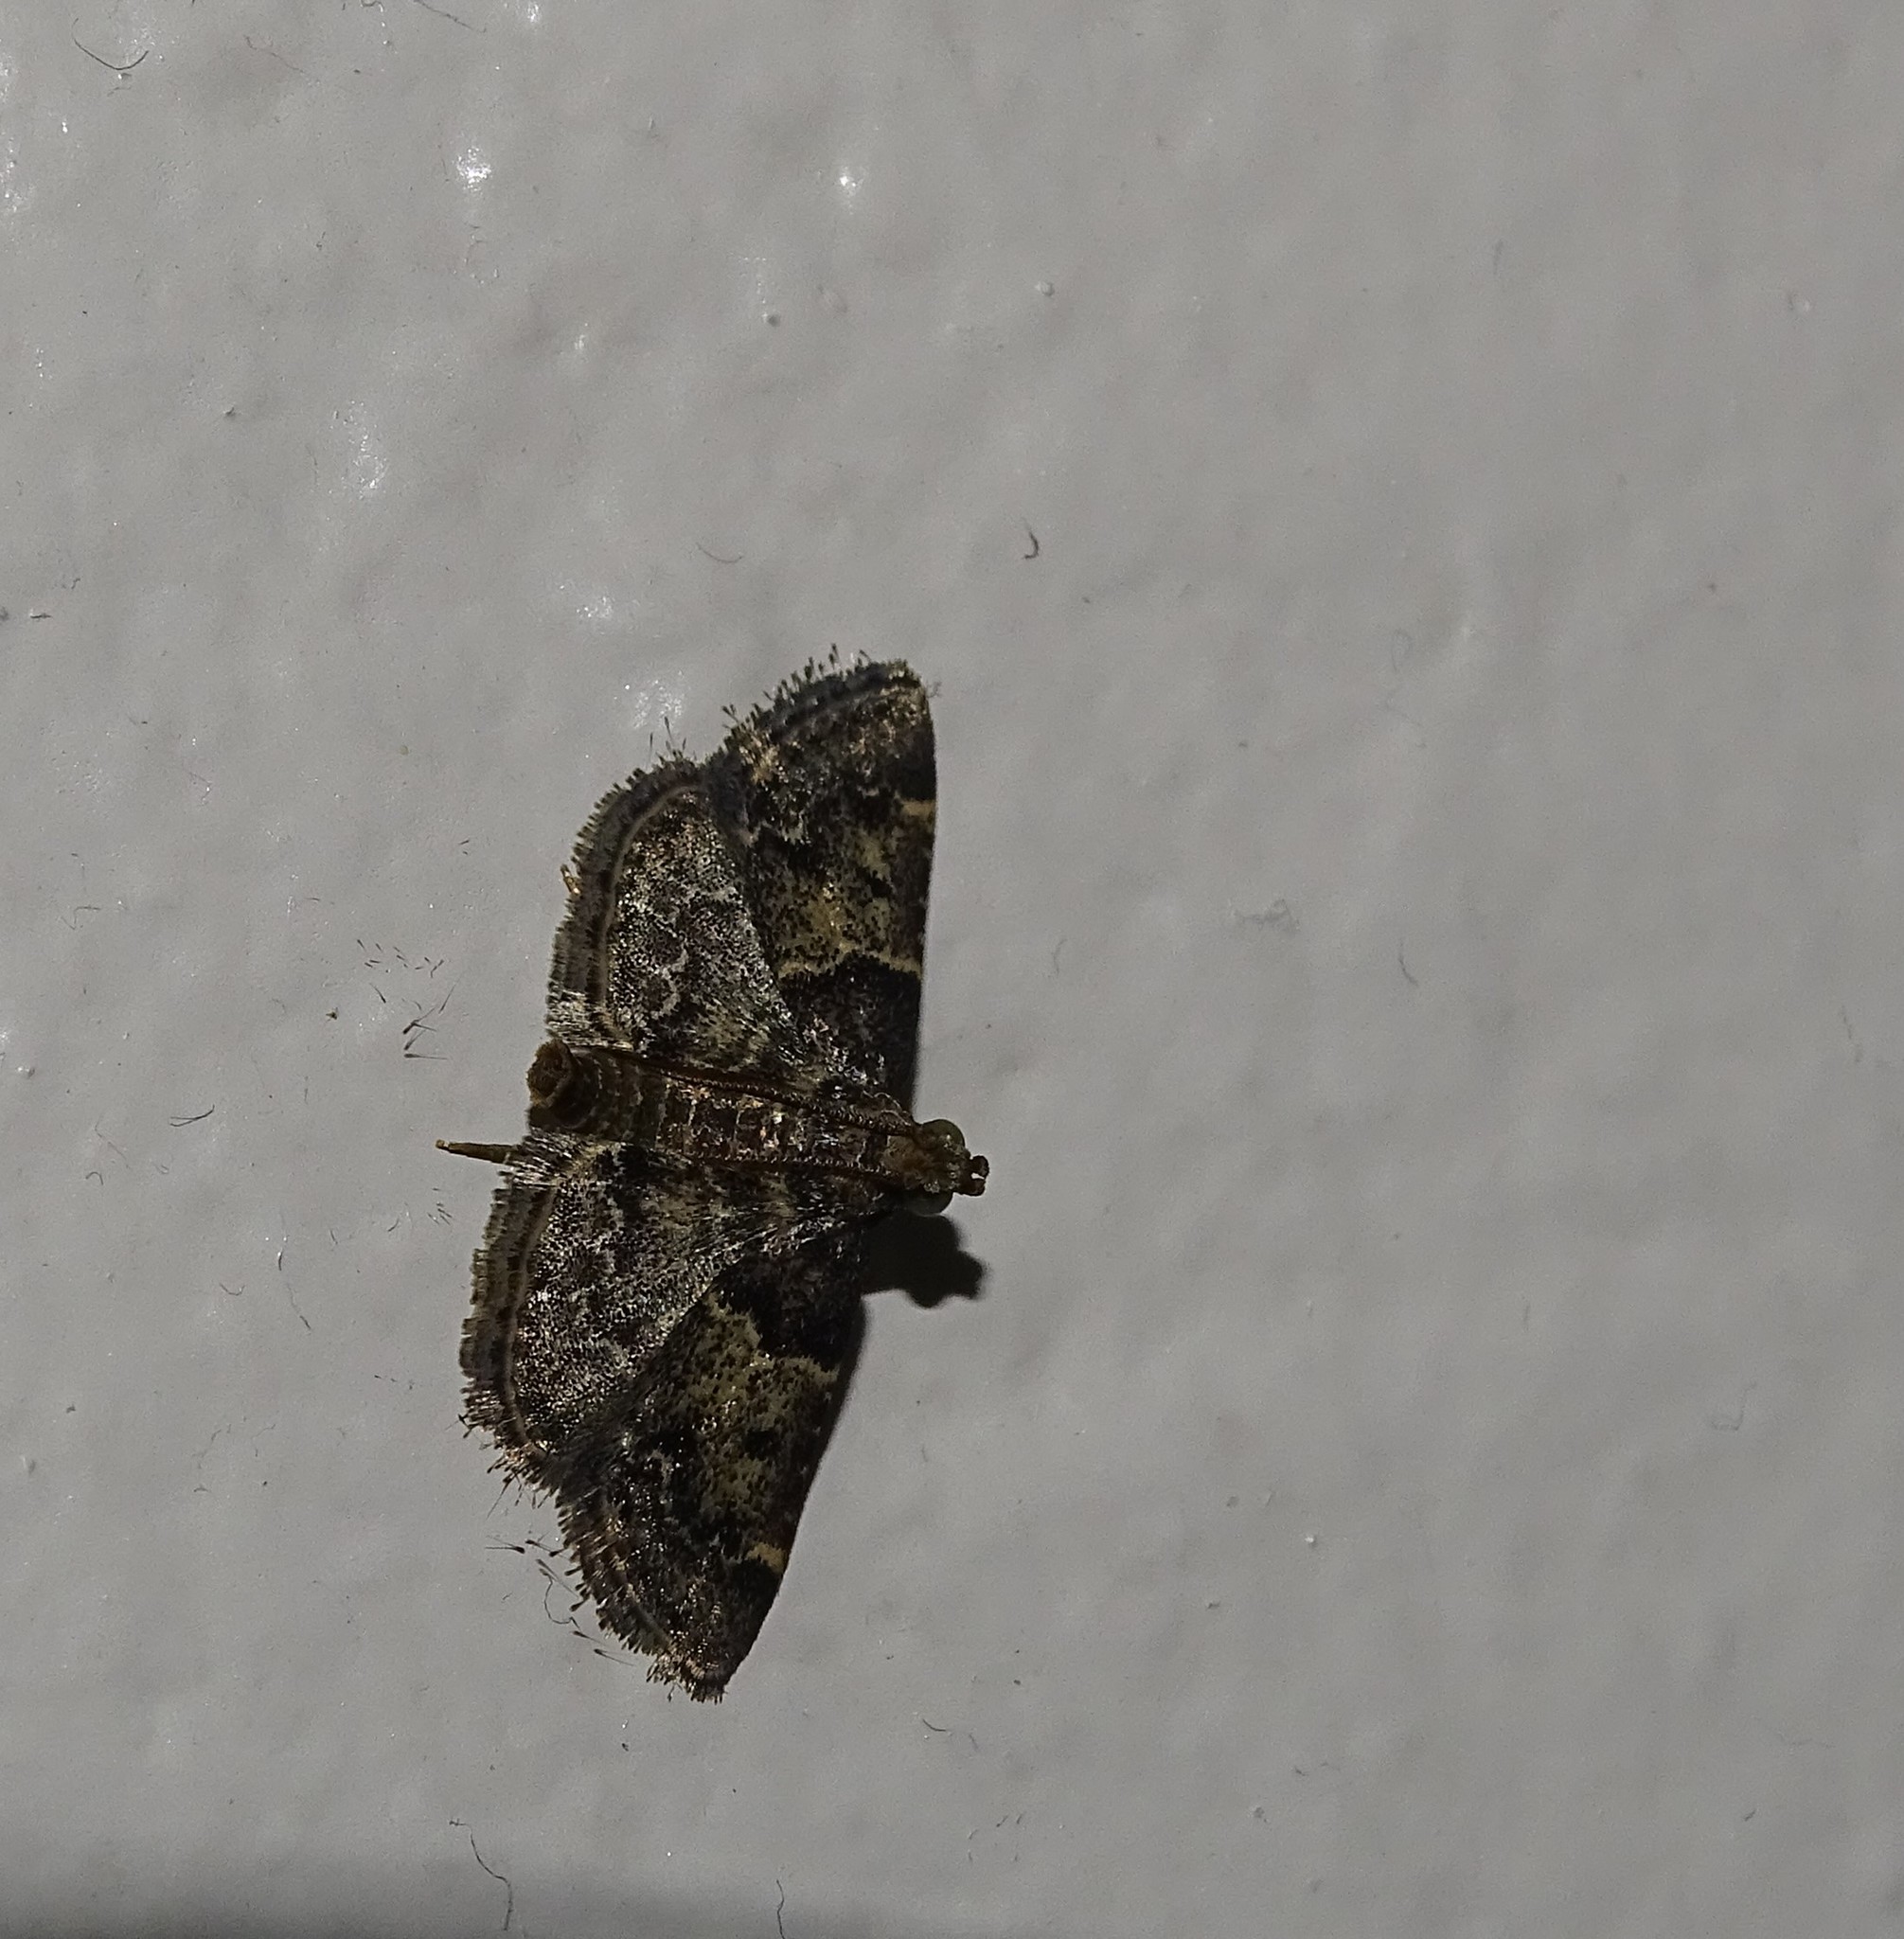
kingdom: Animalia
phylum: Arthropoda
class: Insecta
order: Lepidoptera
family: Pyralidae
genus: Pyralis
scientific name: Pyralis manihotalis
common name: Moth
